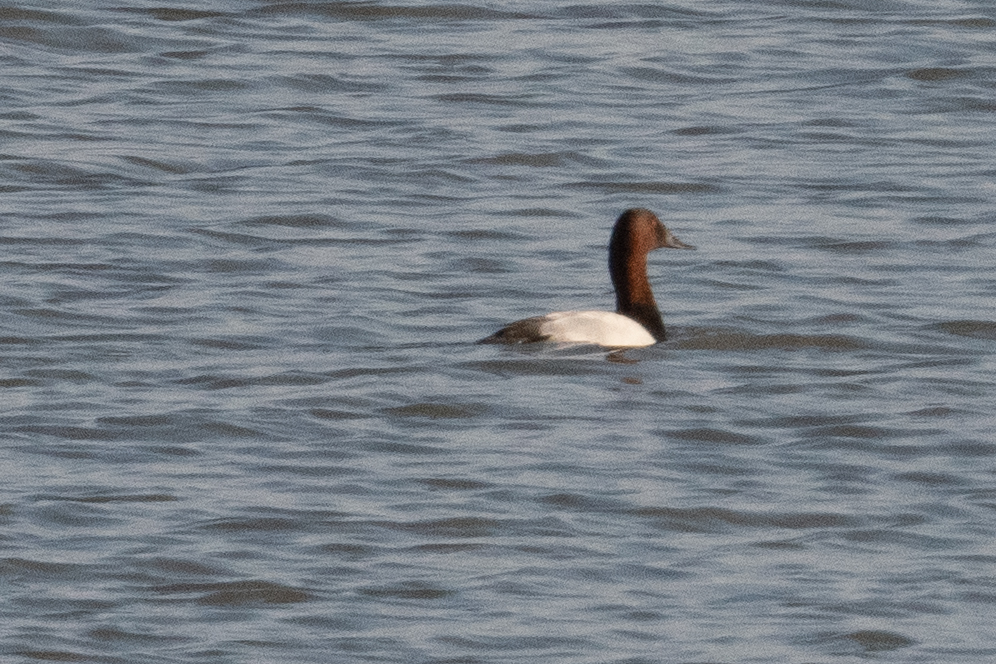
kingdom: Animalia
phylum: Chordata
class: Aves
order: Anseriformes
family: Anatidae
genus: Aythya
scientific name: Aythya valisineria
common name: Canvasback
